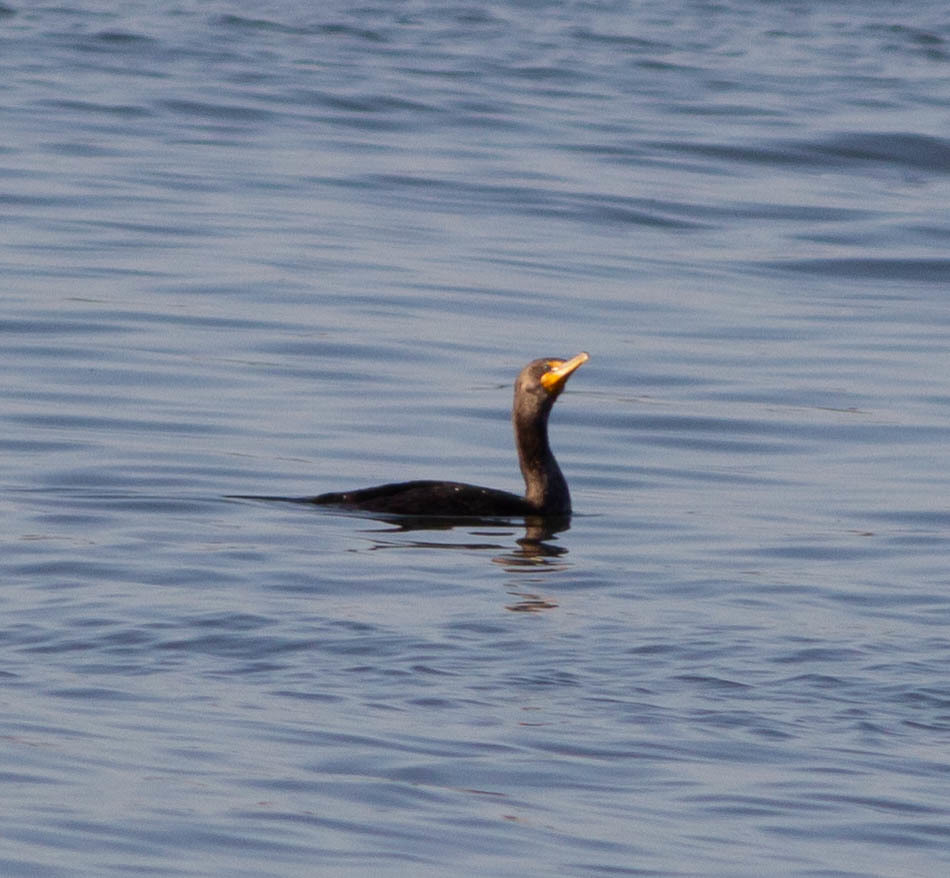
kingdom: Animalia
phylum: Chordata
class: Aves
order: Suliformes
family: Phalacrocoracidae
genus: Phalacrocorax
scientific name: Phalacrocorax auritus
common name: Double-crested cormorant
